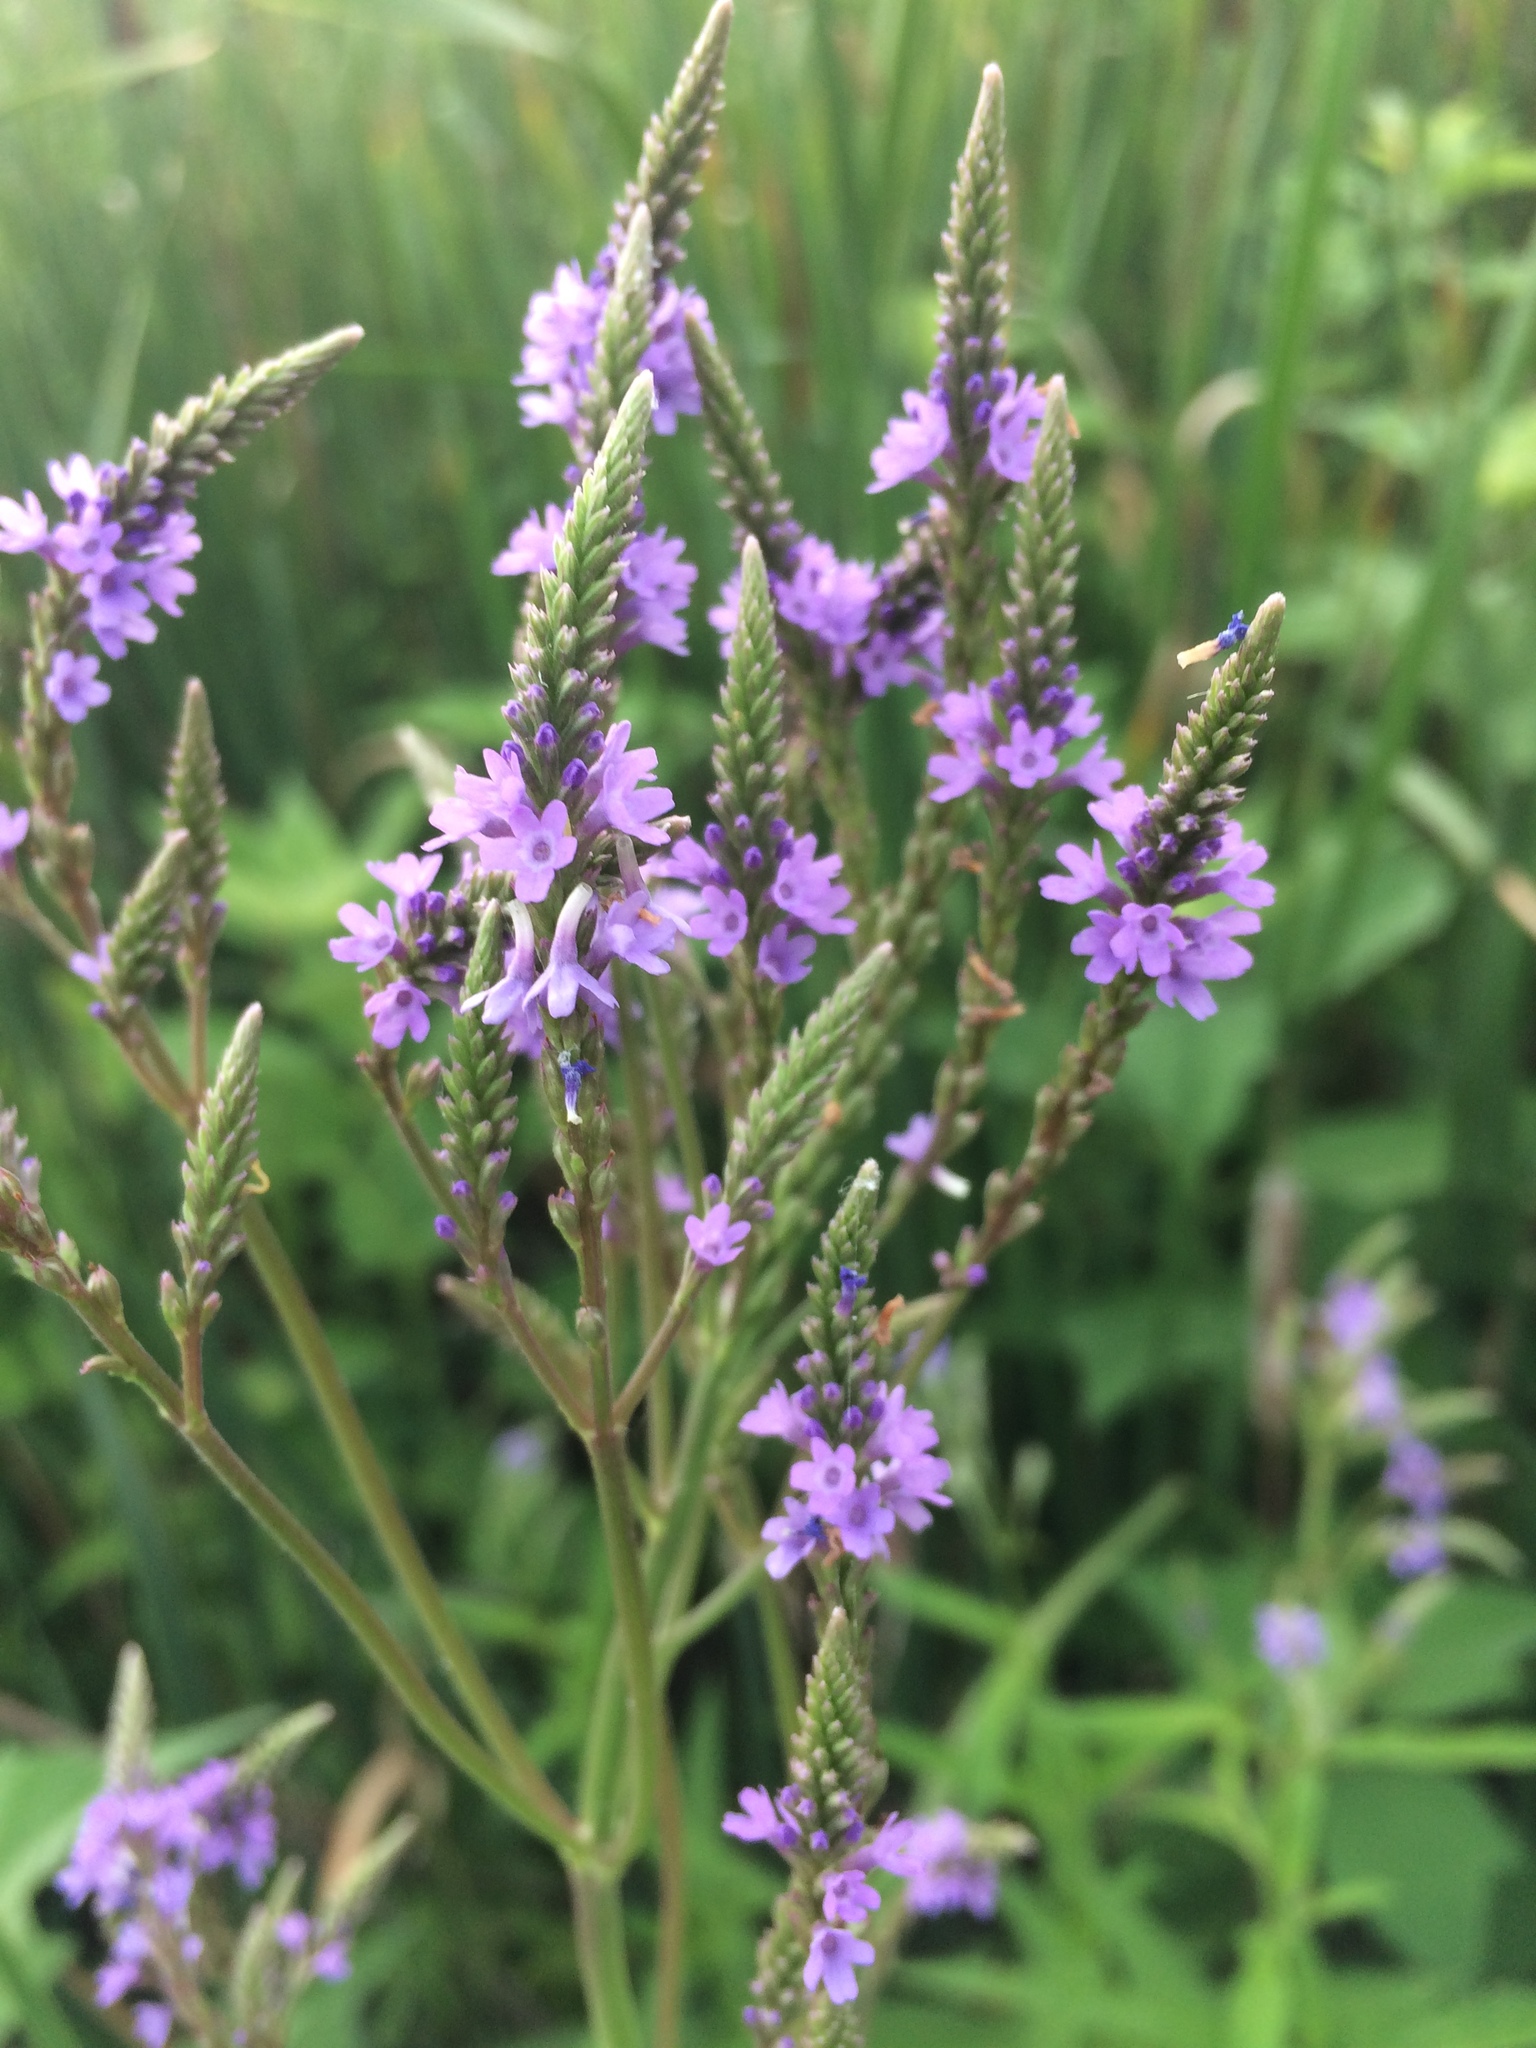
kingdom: Plantae
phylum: Tracheophyta
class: Magnoliopsida
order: Lamiales
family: Verbenaceae
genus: Verbena
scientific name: Verbena hastata
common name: American blue vervain
